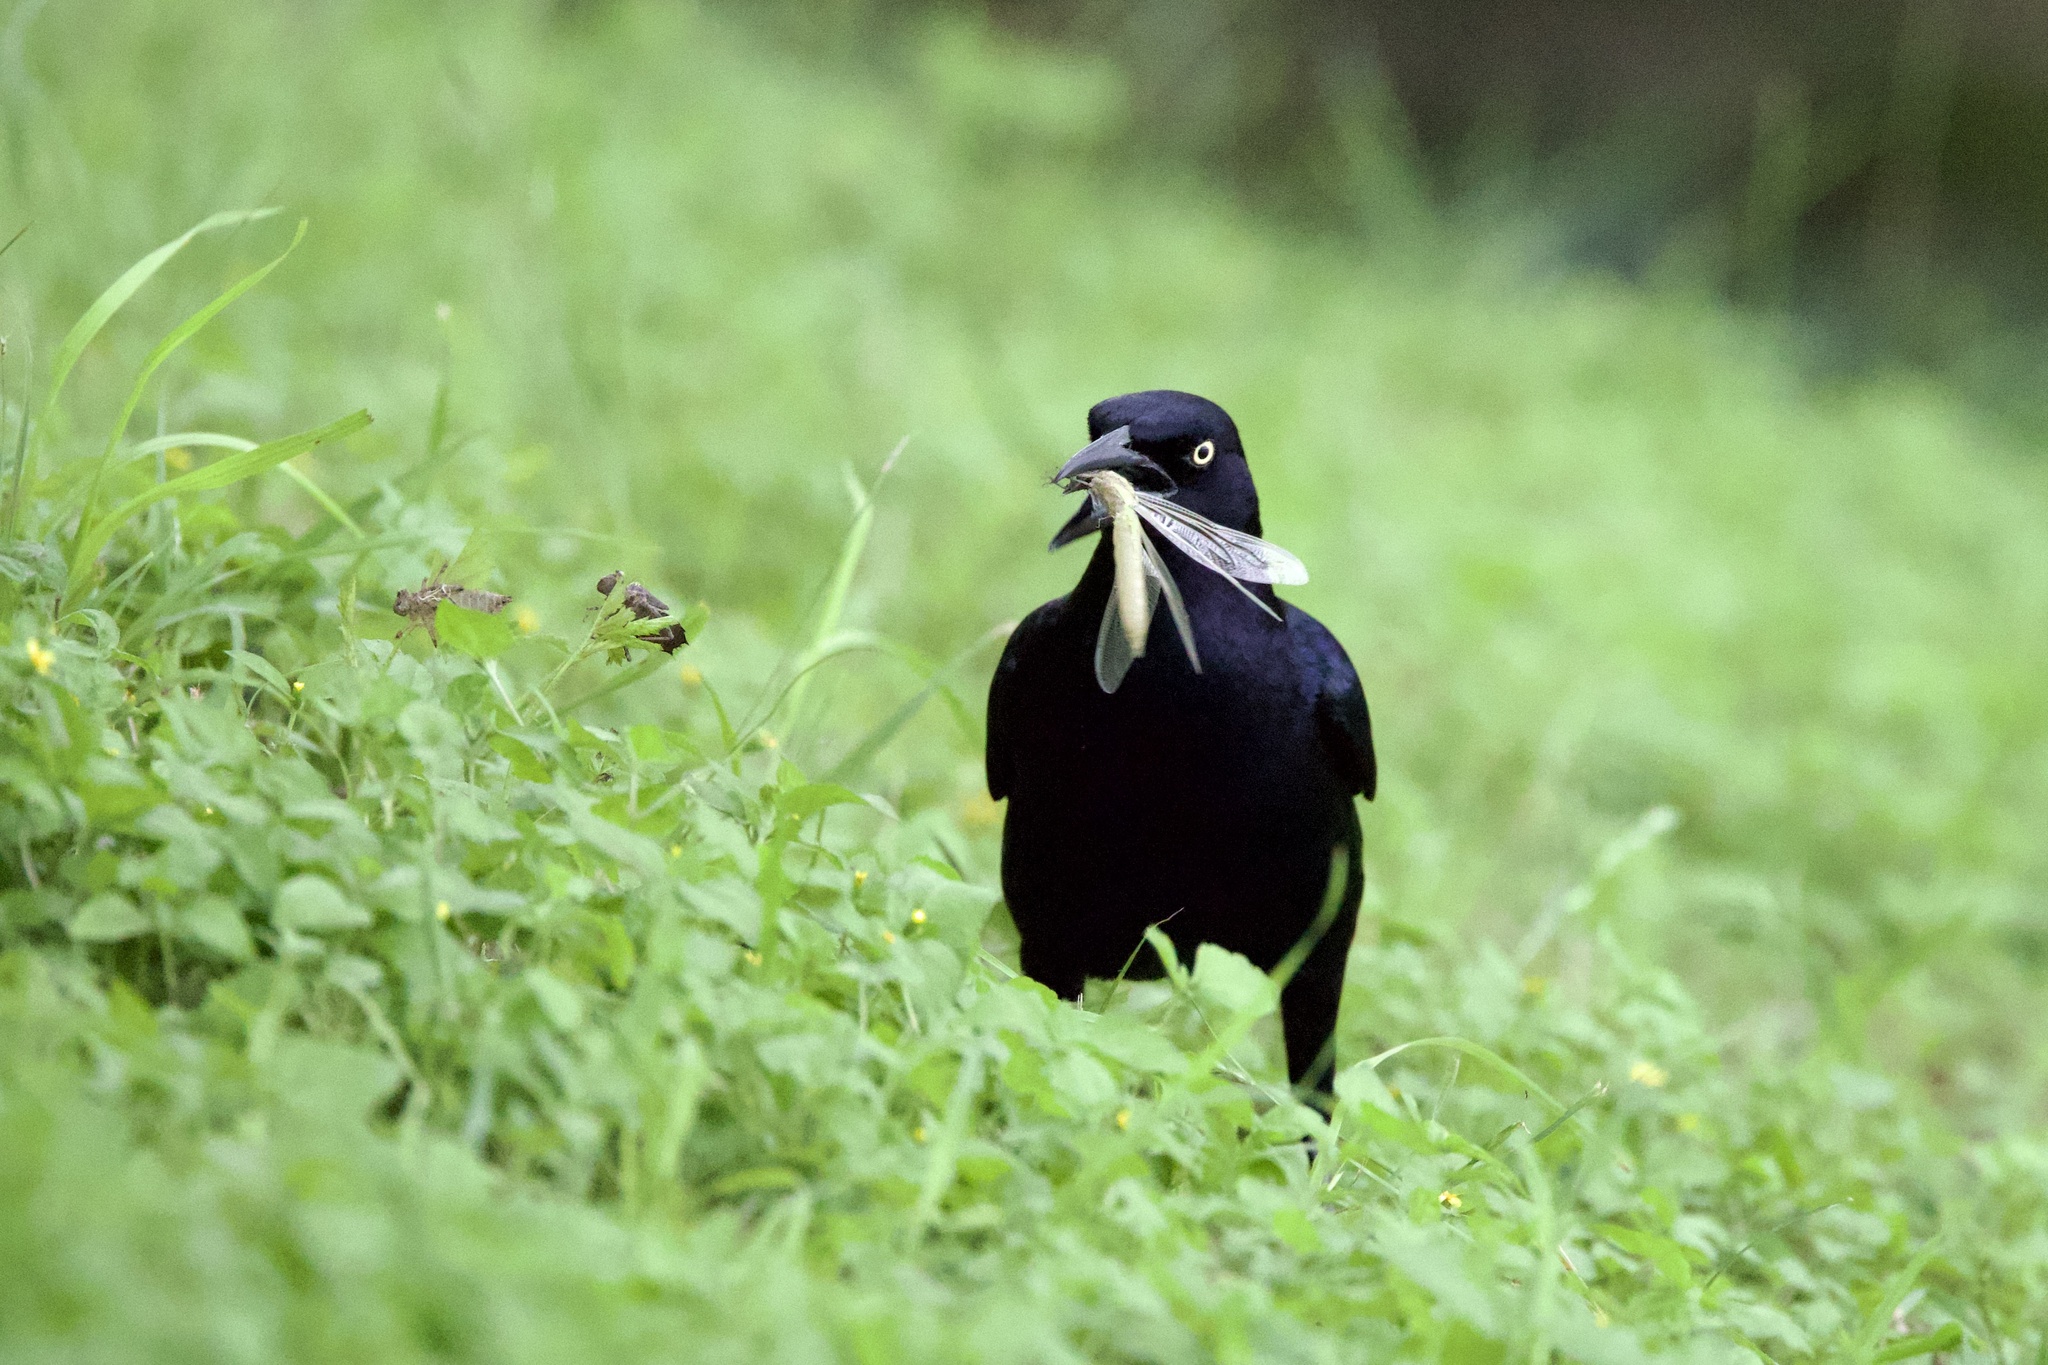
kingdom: Animalia
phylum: Chordata
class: Aves
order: Passeriformes
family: Icteridae
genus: Quiscalus
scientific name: Quiscalus mexicanus
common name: Great-tailed grackle
